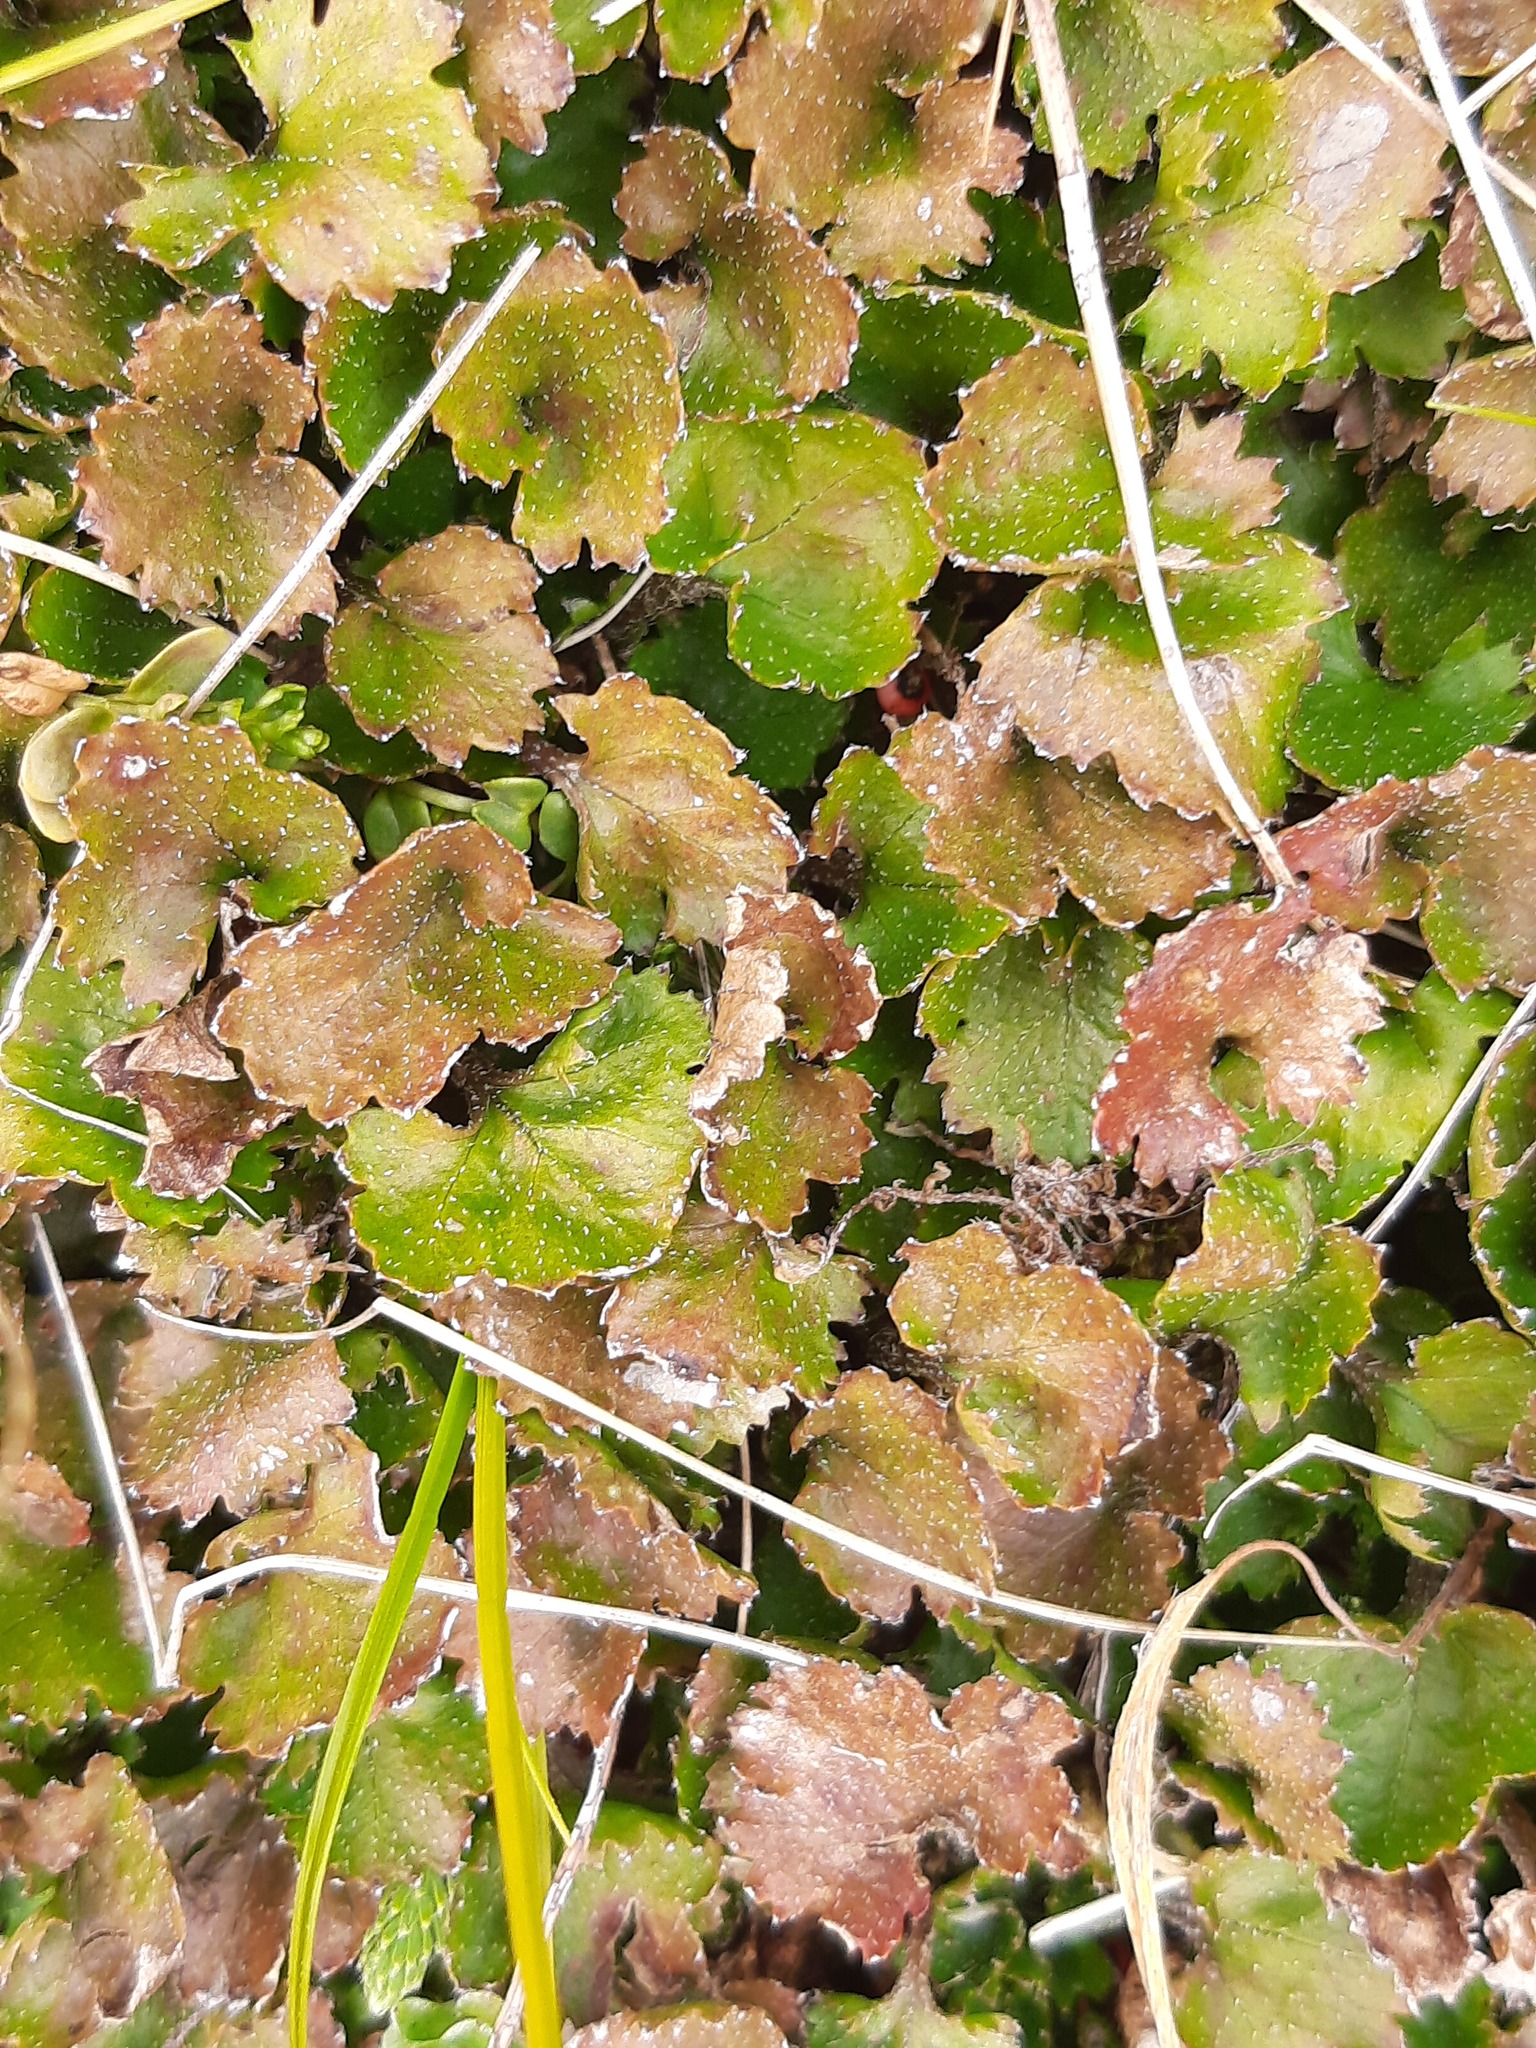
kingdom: Plantae
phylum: Tracheophyta
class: Magnoliopsida
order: Gunnerales
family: Gunneraceae
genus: Gunnera
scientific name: Gunnera monoica
